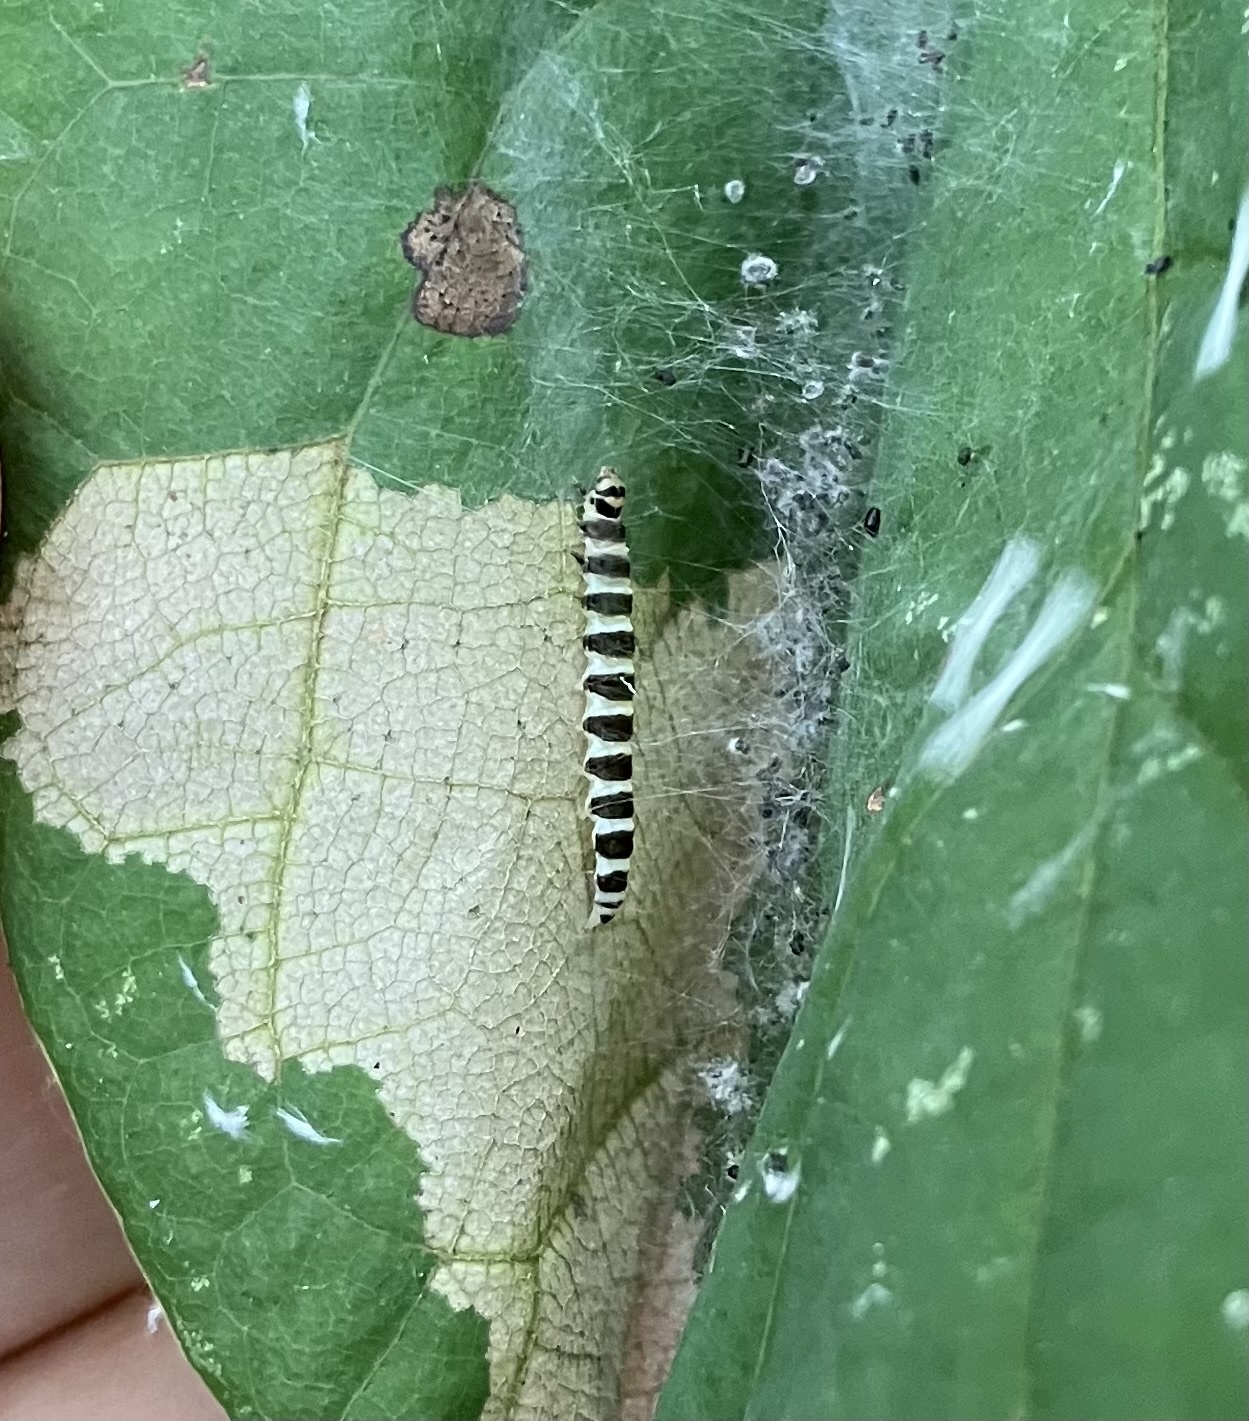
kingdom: Animalia
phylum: Arthropoda
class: Insecta
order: Lepidoptera
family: Gelechiidae
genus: Fascista
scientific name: Fascista cercerisella
